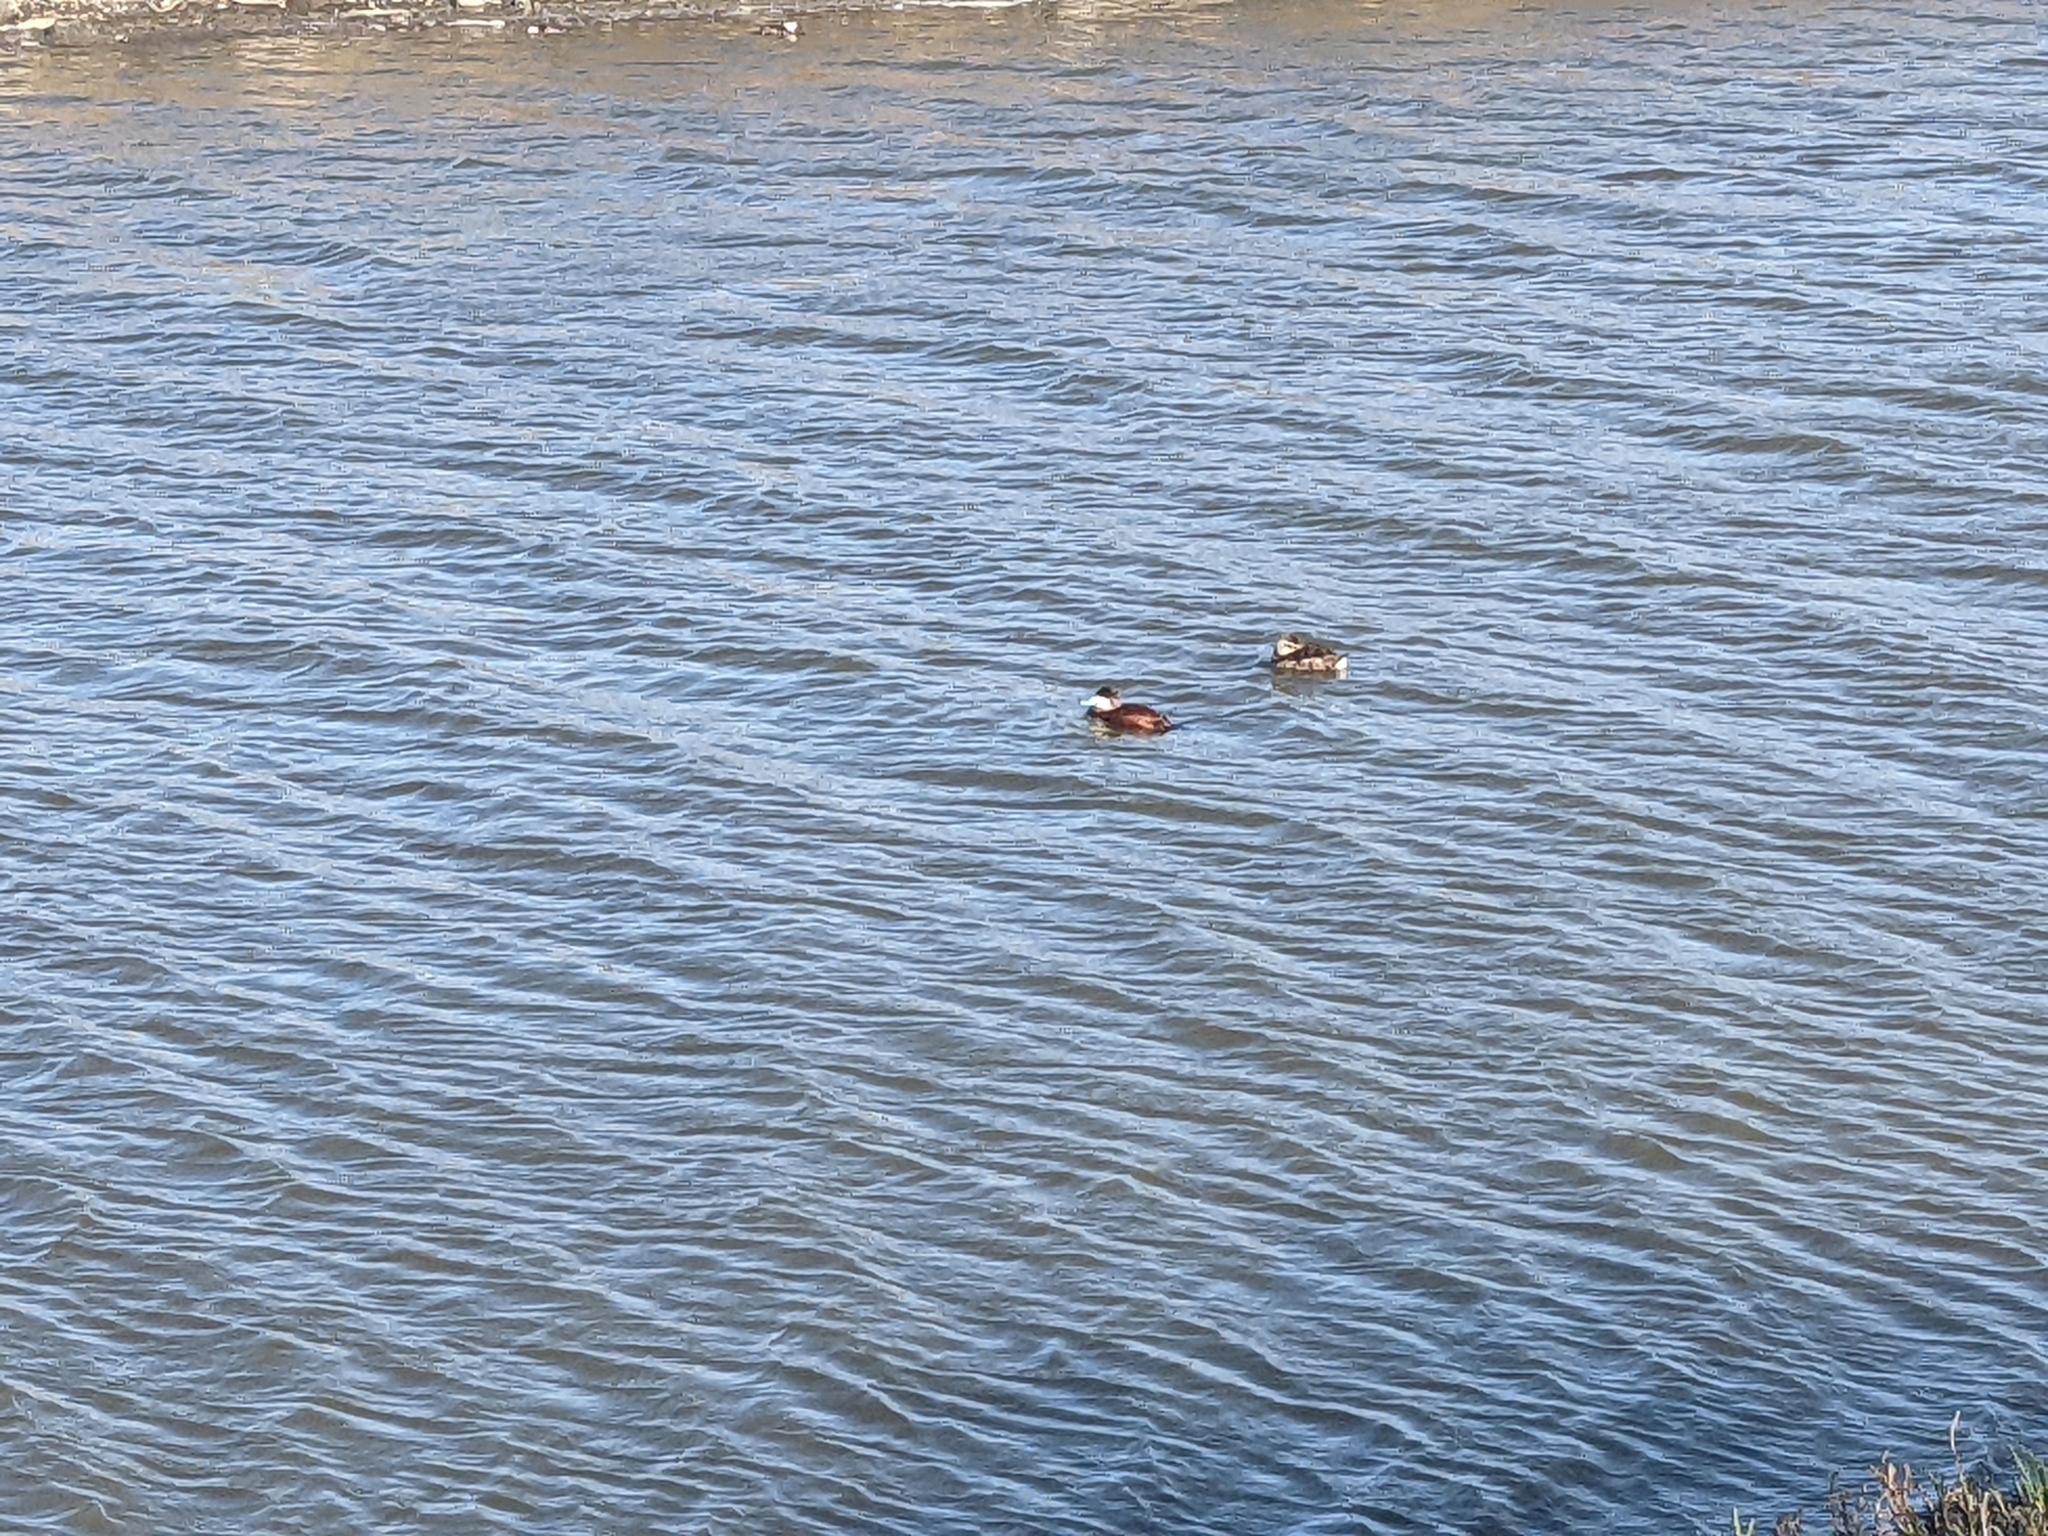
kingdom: Animalia
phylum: Chordata
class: Aves
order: Anseriformes
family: Anatidae
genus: Oxyura
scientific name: Oxyura jamaicensis
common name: Ruddy duck
